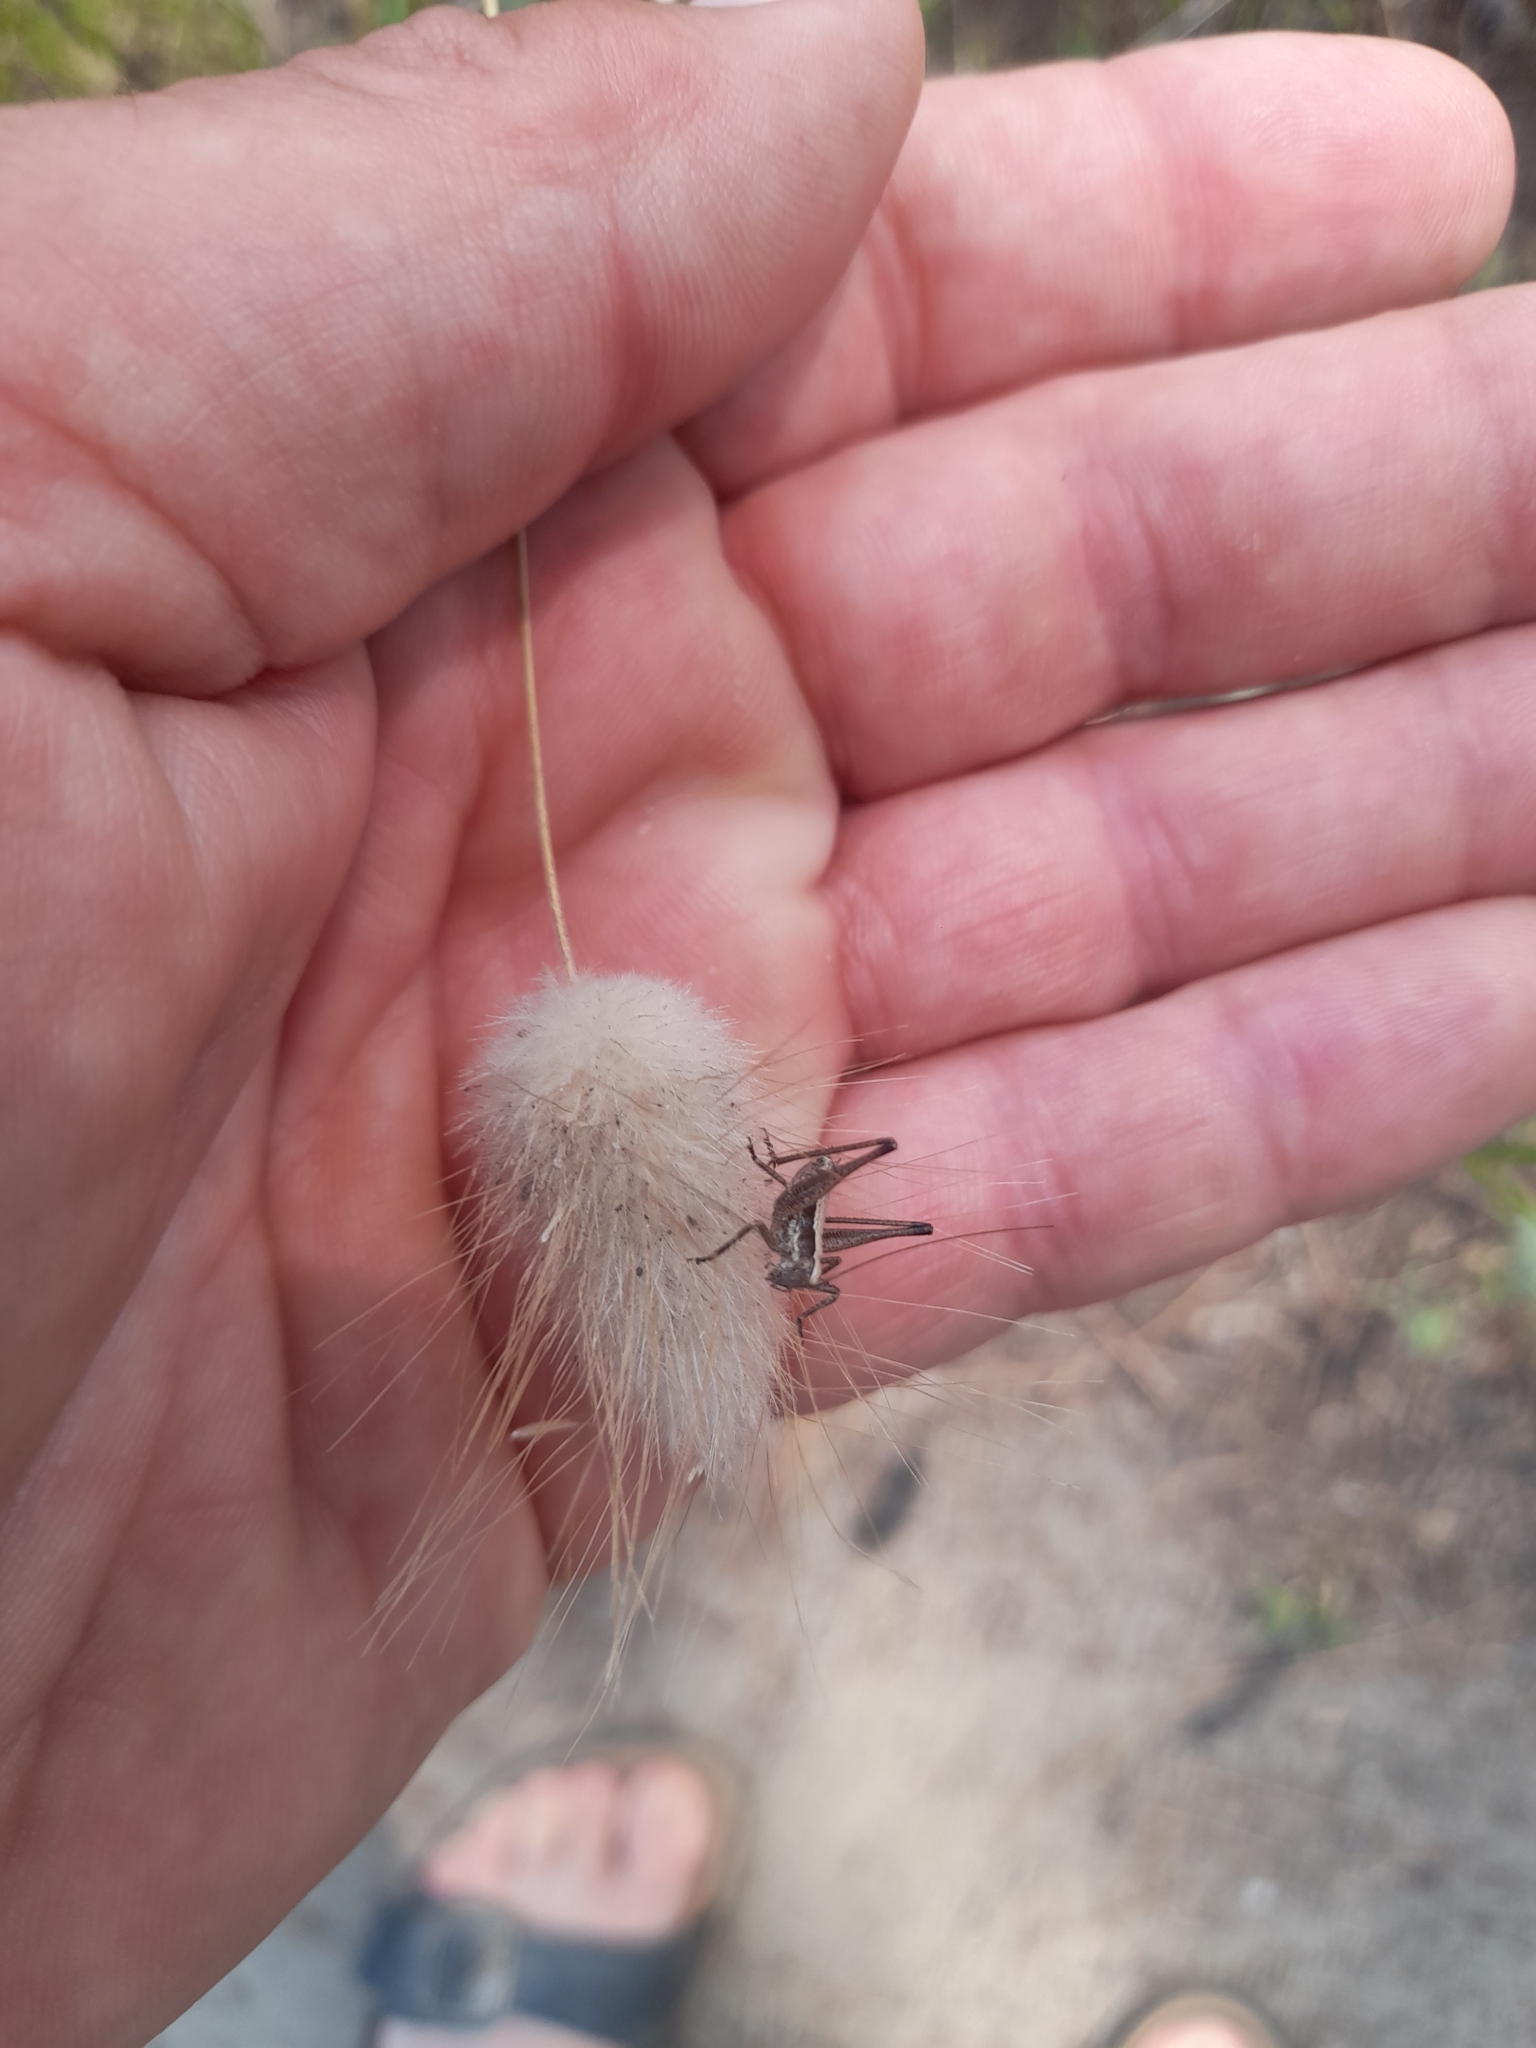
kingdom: Plantae
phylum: Tracheophyta
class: Liliopsida
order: Poales
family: Poaceae
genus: Lagurus
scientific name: Lagurus ovatus
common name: Hare's-tail
